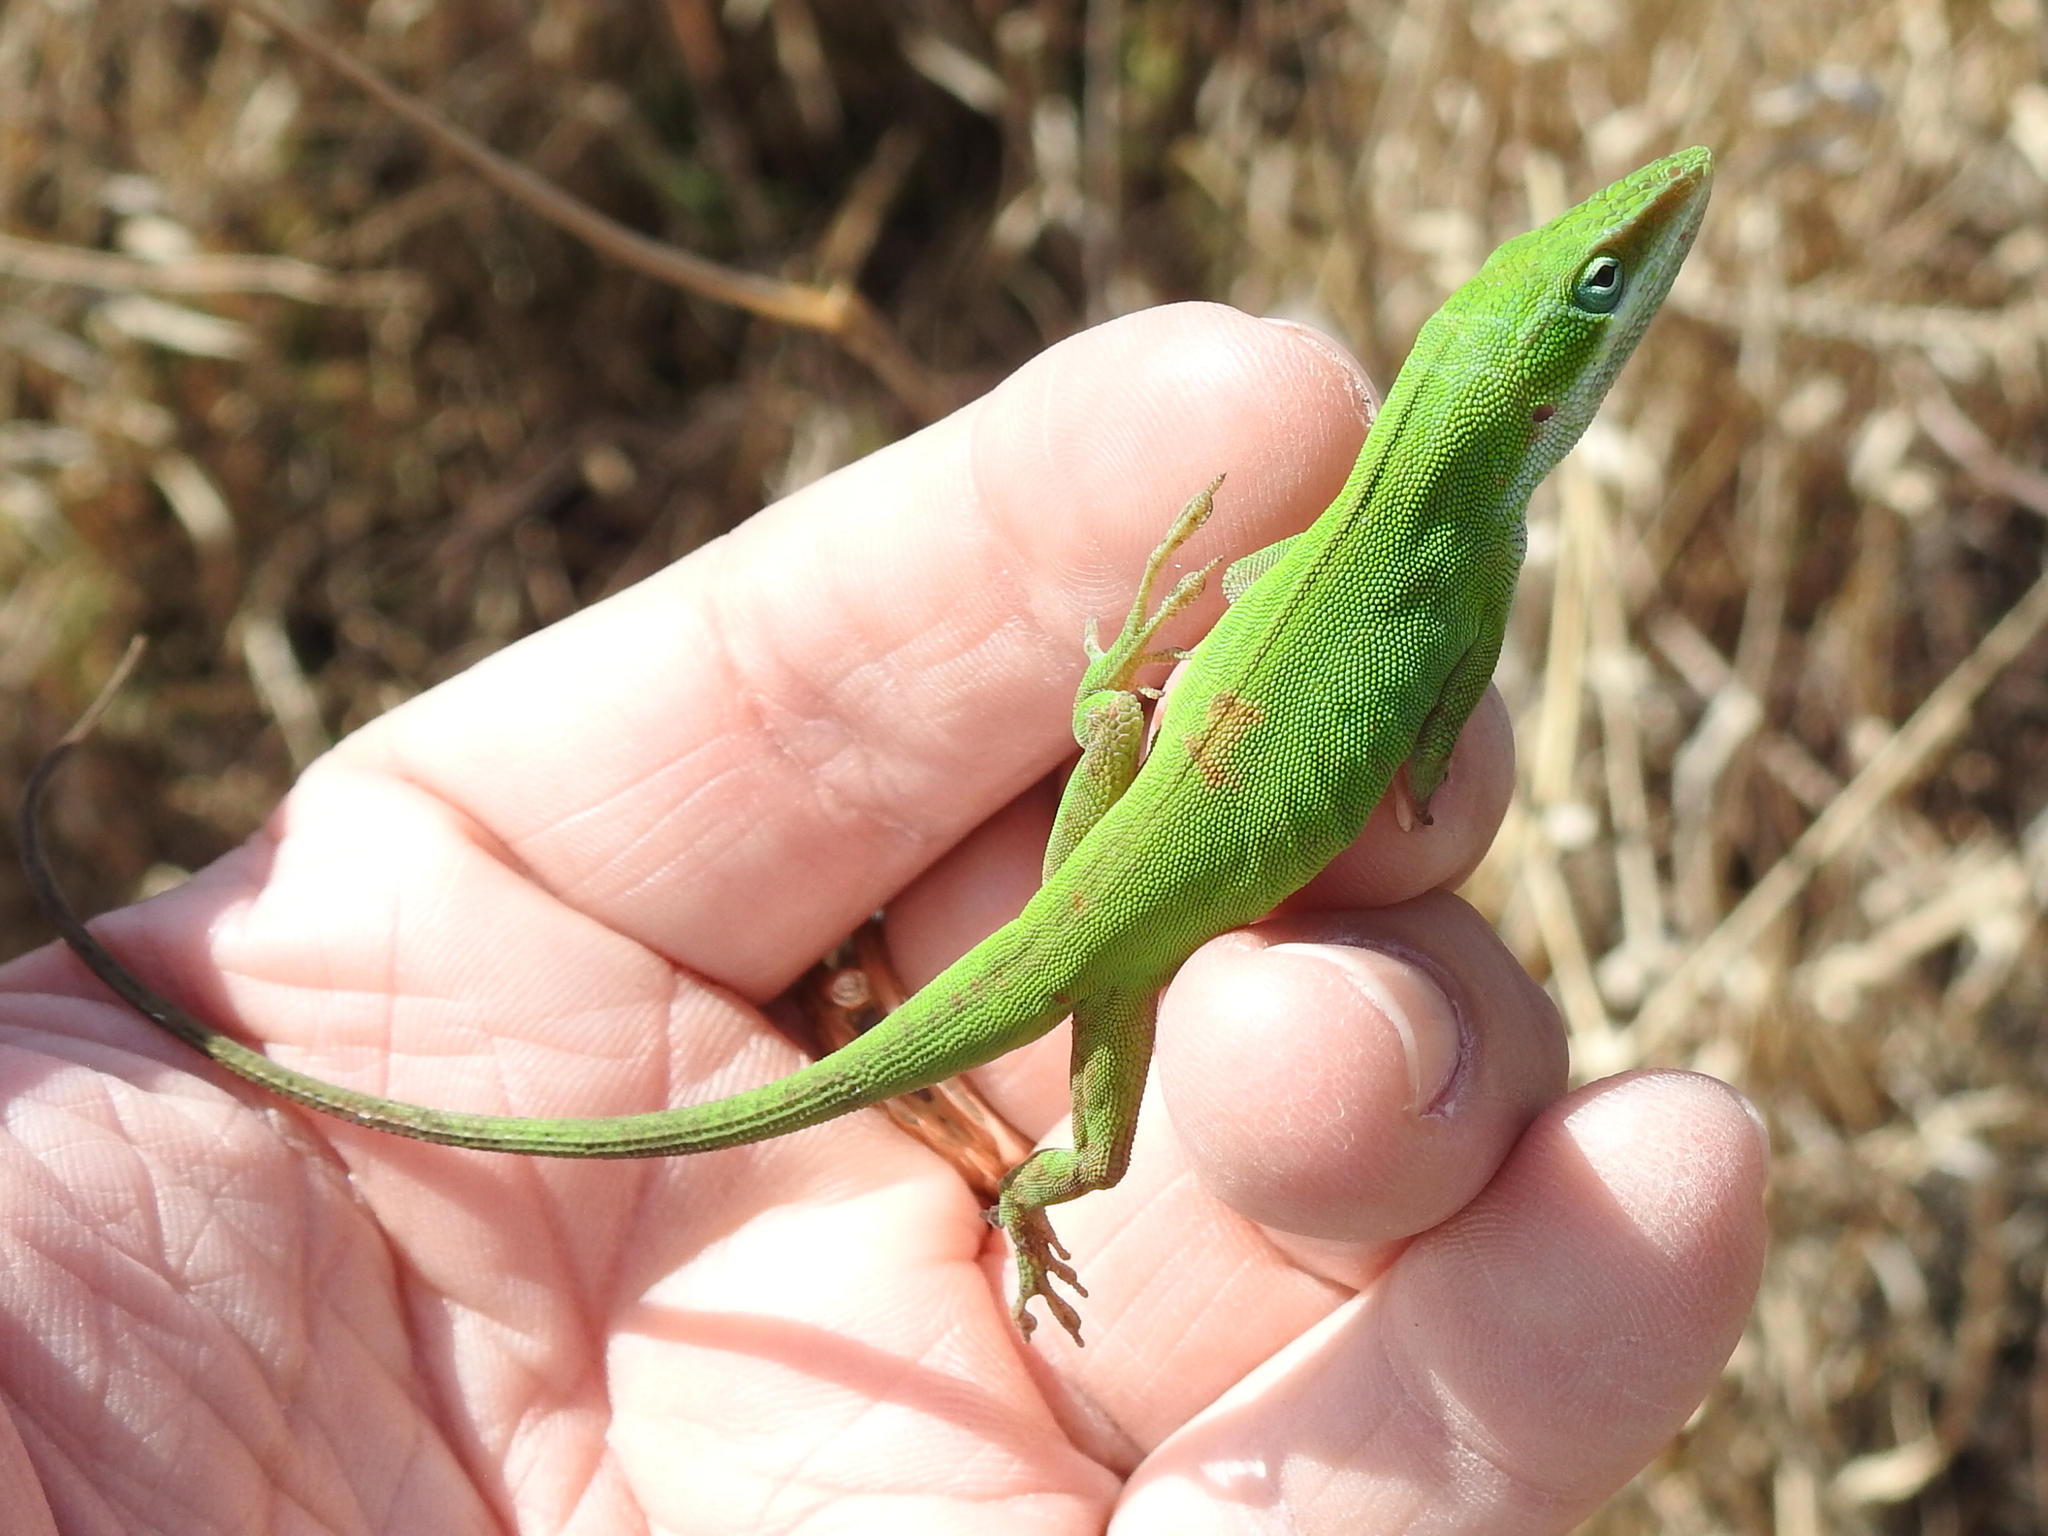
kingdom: Animalia
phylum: Chordata
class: Squamata
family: Dactyloidae
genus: Anolis
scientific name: Anolis carolinensis
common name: Green anole
